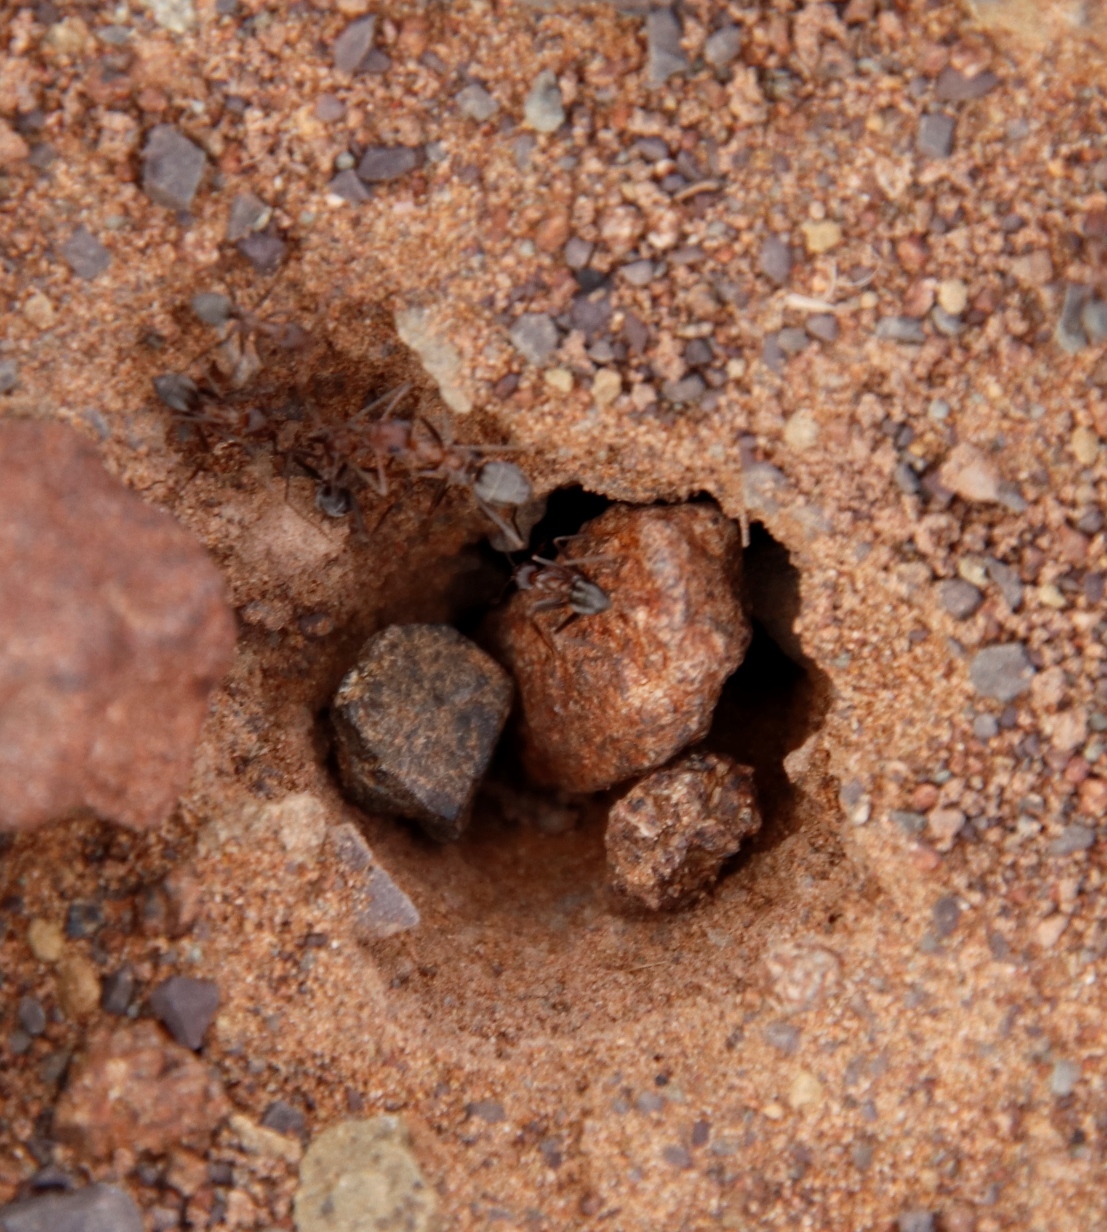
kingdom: Animalia
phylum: Arthropoda
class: Insecta
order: Hymenoptera
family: Formicidae
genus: Anoplolepis
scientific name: Anoplolepis custodiens
